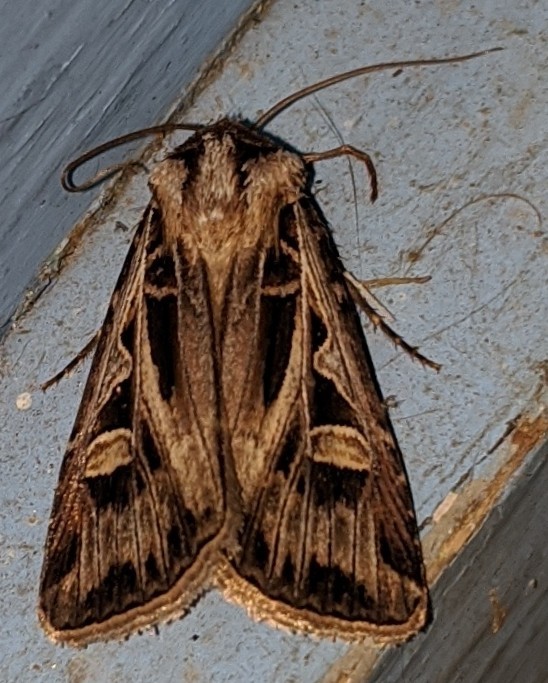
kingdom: Animalia
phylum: Arthropoda
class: Insecta
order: Lepidoptera
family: Noctuidae
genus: Feltia
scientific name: Feltia jaculifera
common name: Dingy cutworm moth
